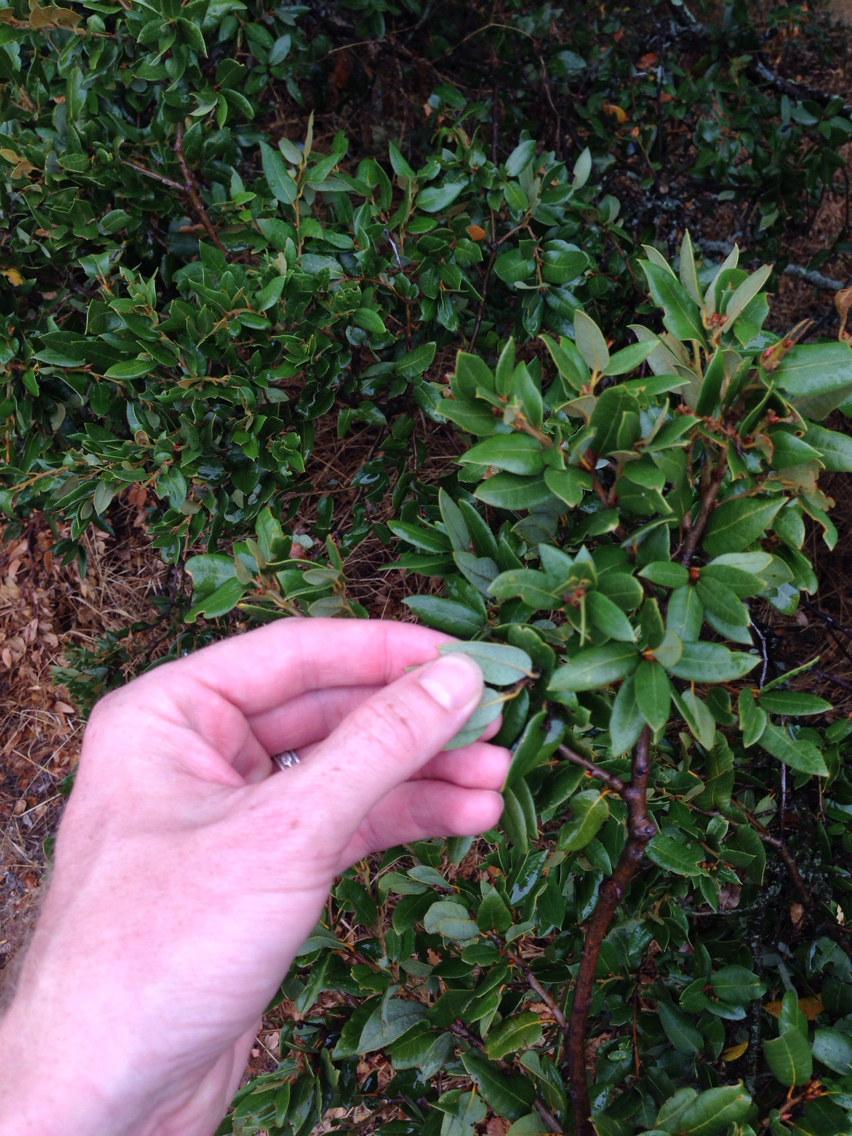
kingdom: Plantae
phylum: Tracheophyta
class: Magnoliopsida
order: Fagales
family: Fagaceae
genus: Quercus
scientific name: Quercus chrysolepis
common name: Canyon live oak
